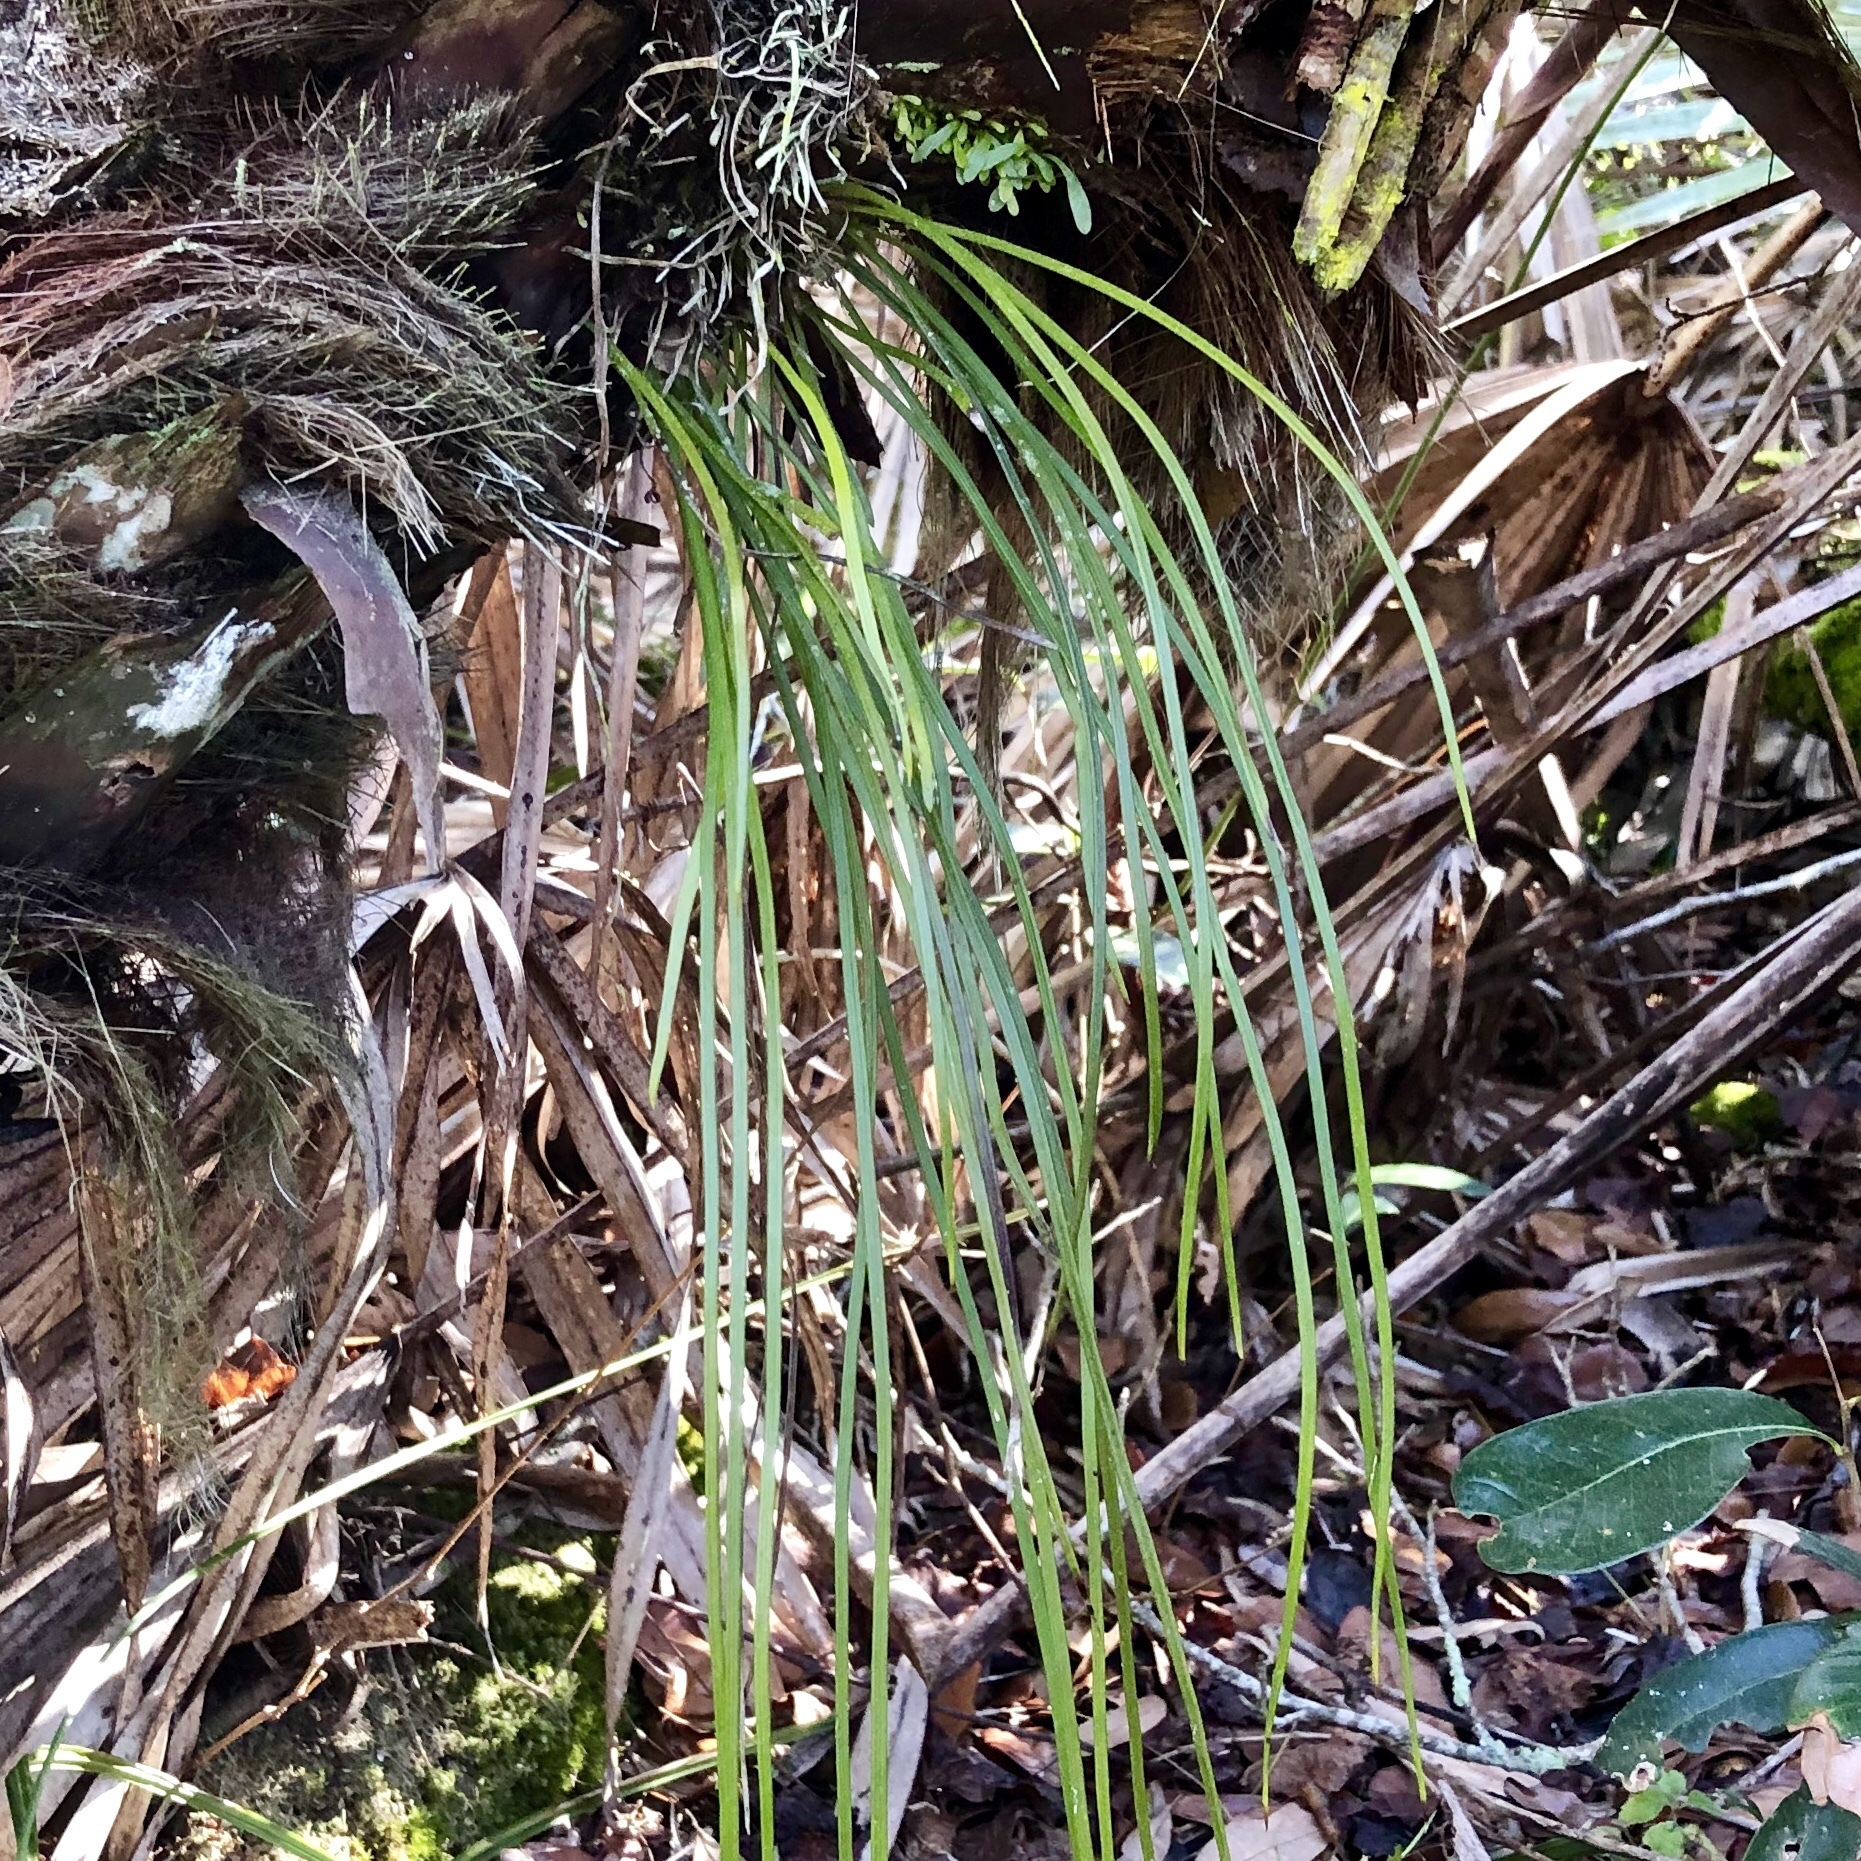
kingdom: Plantae
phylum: Tracheophyta
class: Polypodiopsida
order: Polypodiales
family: Pteridaceae
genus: Vittaria
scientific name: Vittaria lineata
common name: Shoestring fern
